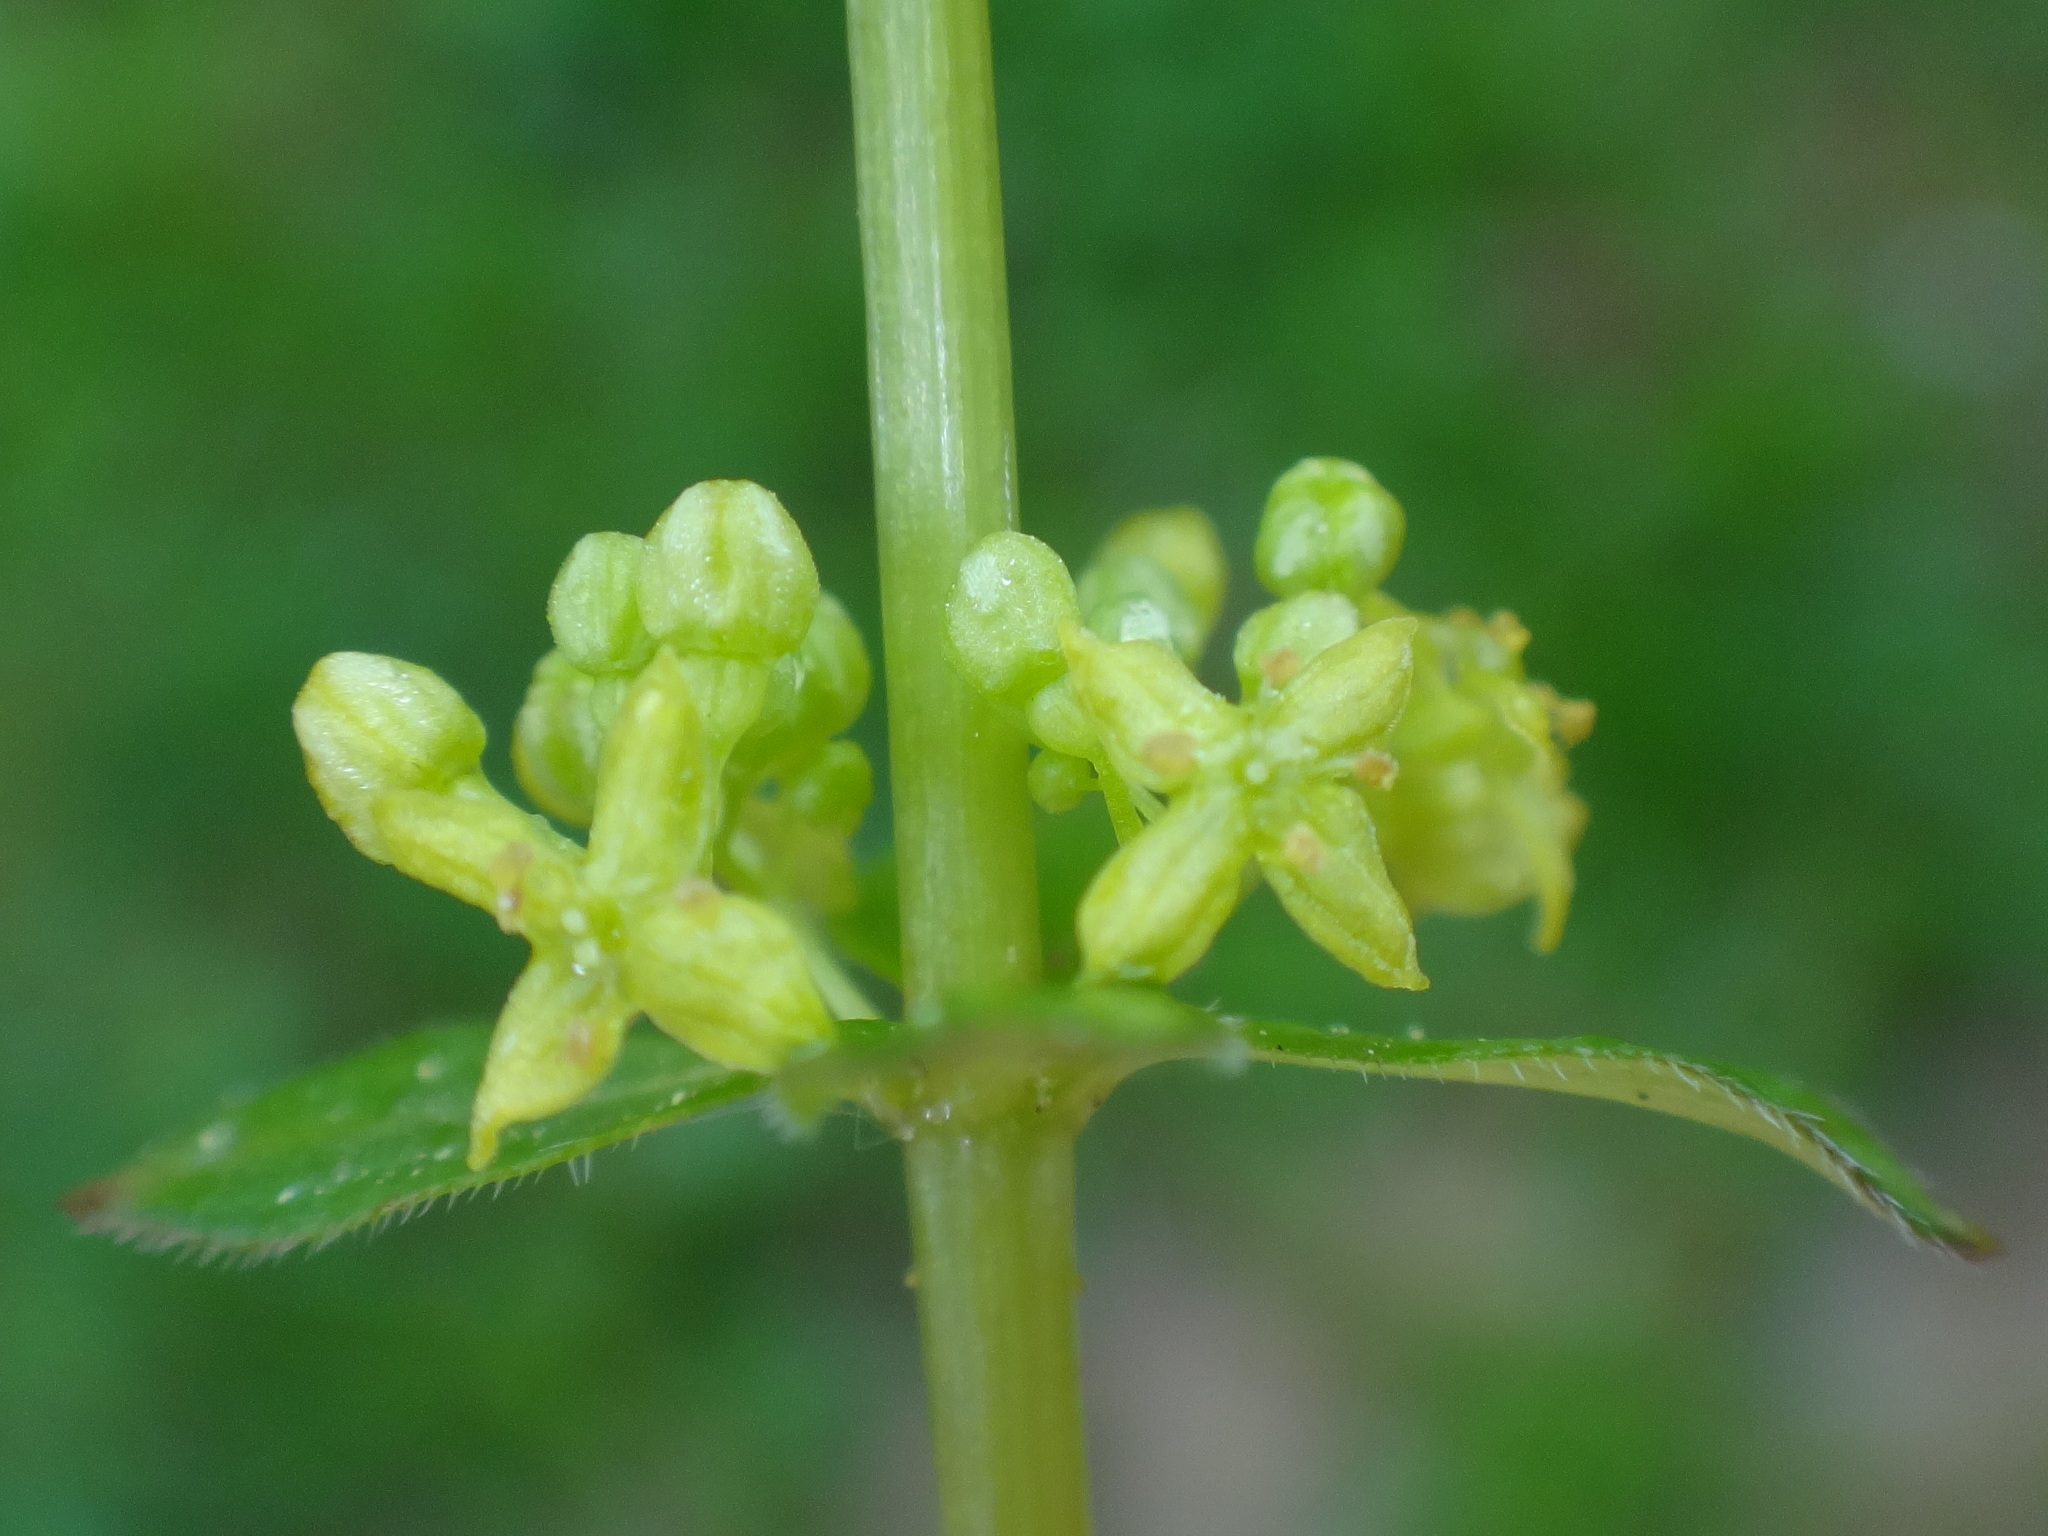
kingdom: Plantae
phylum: Tracheophyta
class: Magnoliopsida
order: Gentianales
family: Rubiaceae
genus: Cruciata
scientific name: Cruciata glabra
